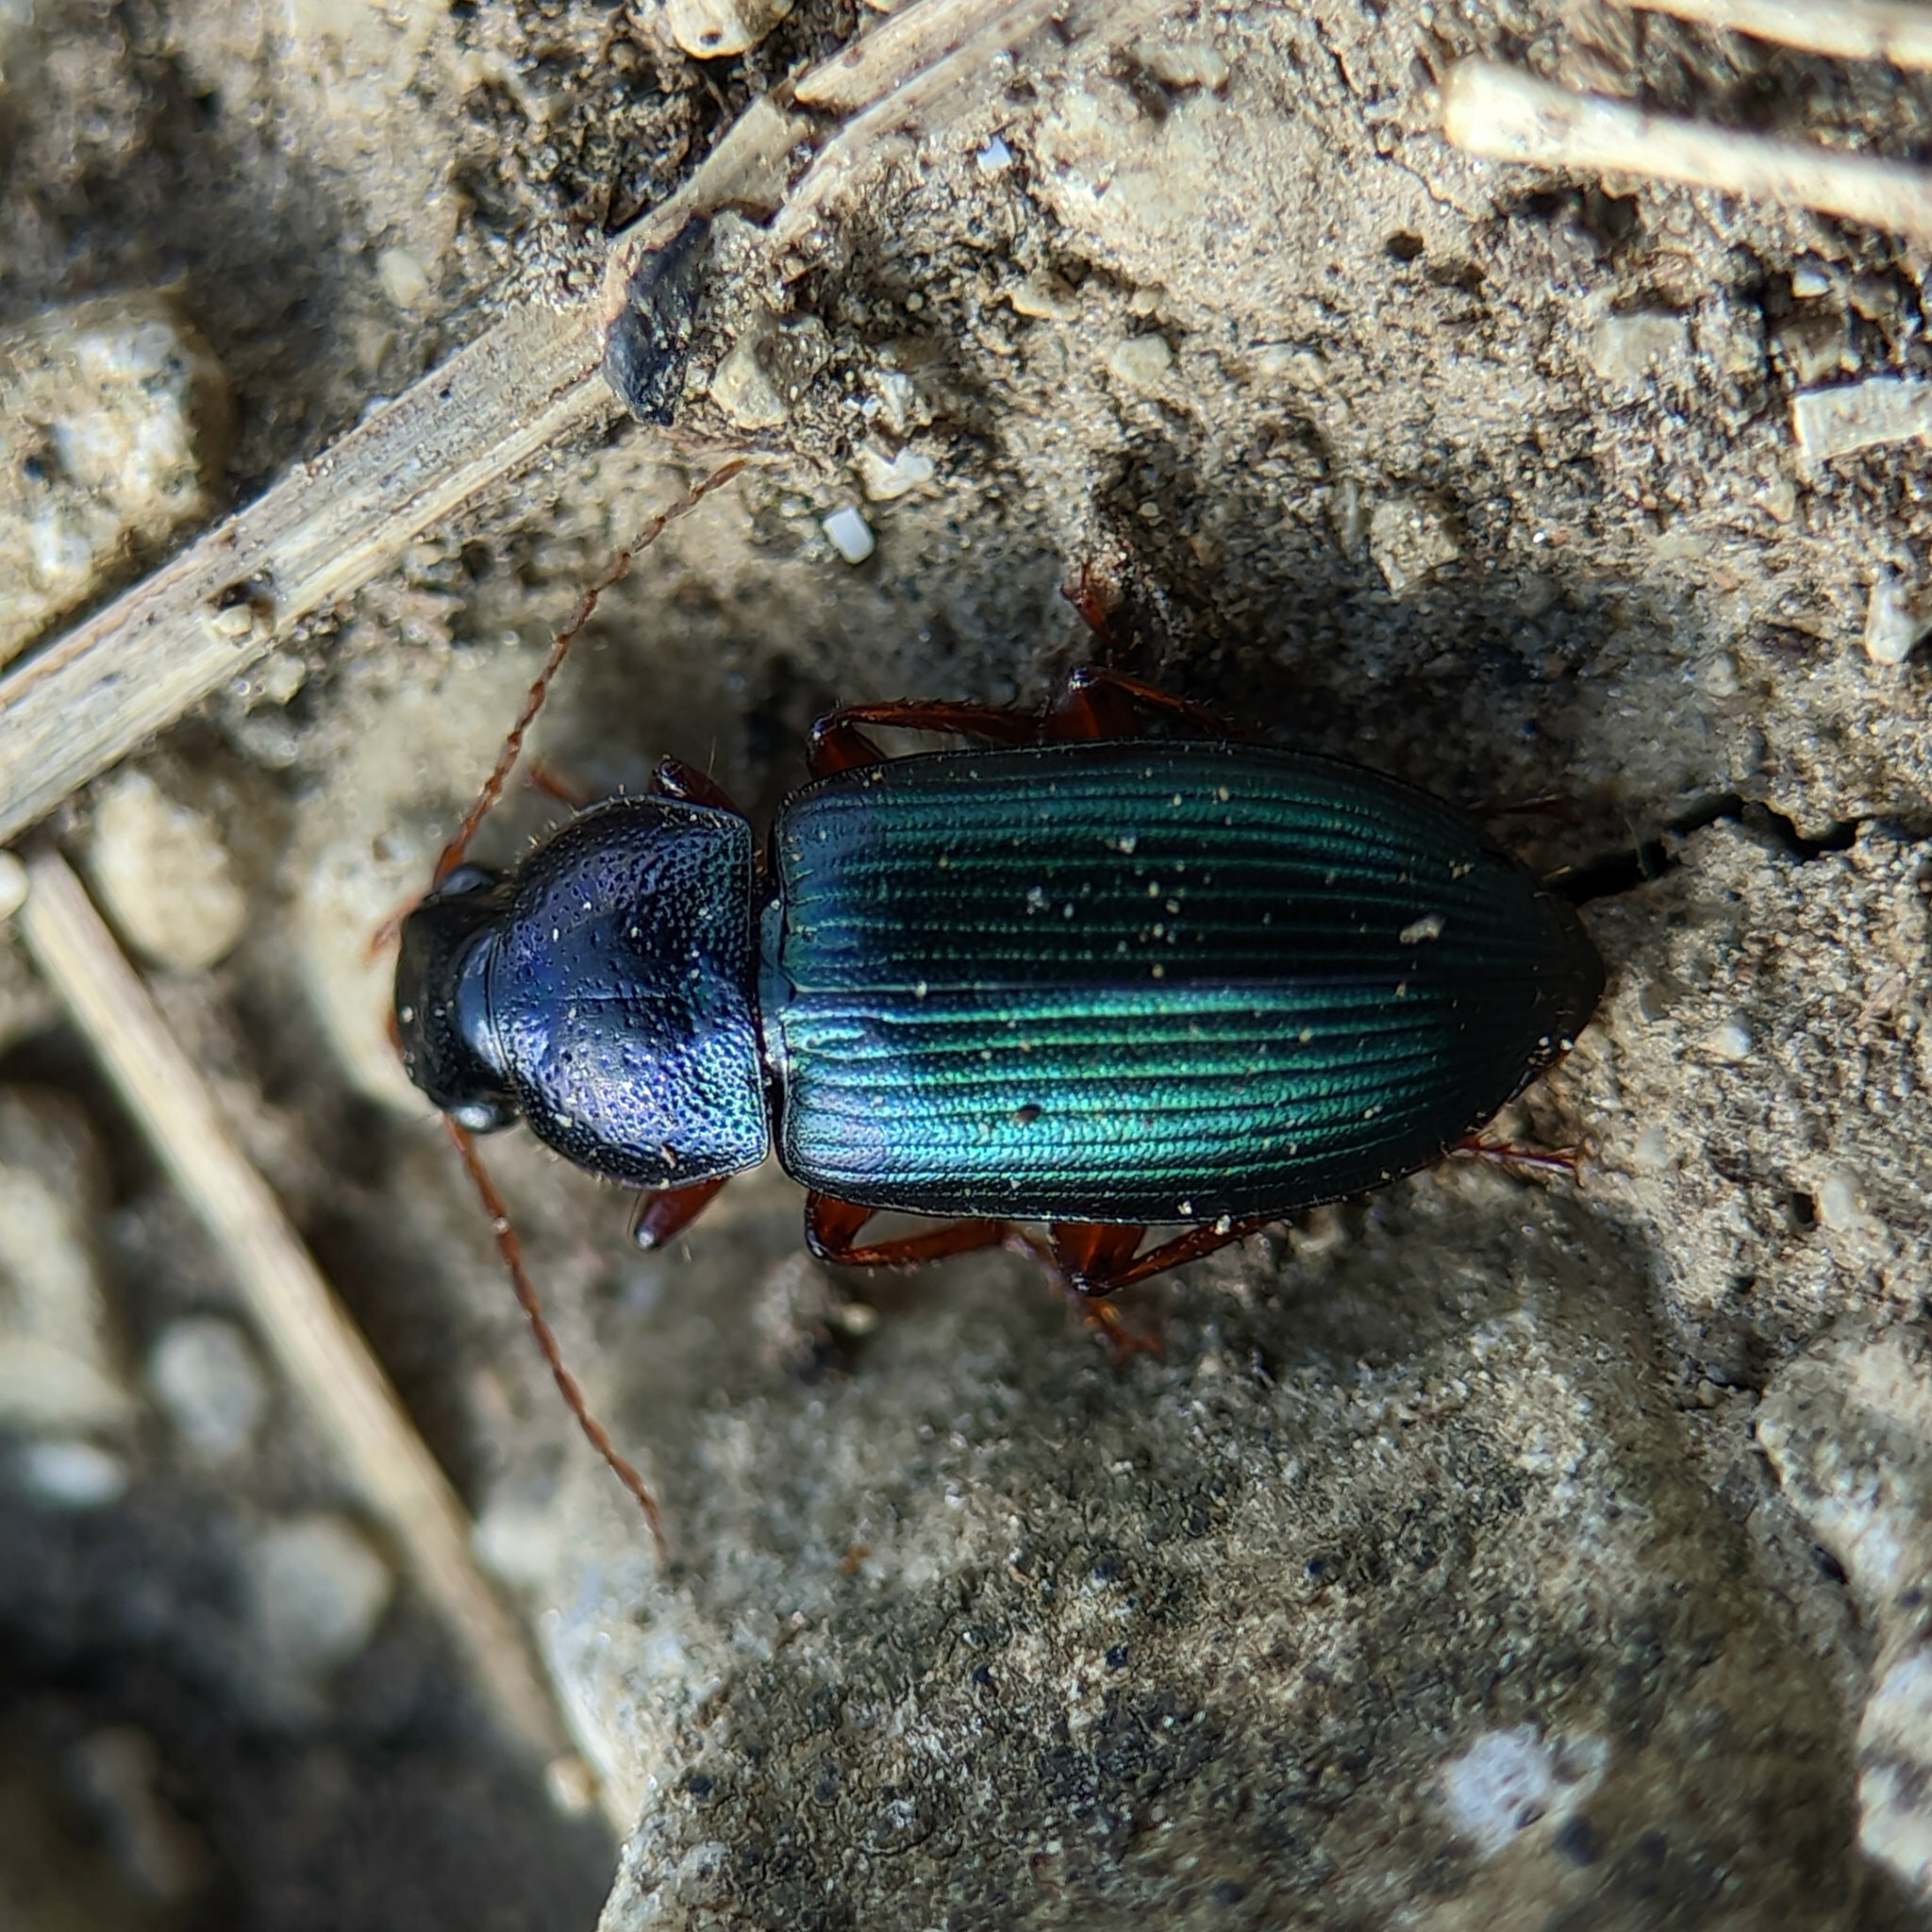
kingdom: Animalia
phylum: Arthropoda
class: Insecta
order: Coleoptera
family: Carabidae
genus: Ophonus
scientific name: Ophonus azureus
